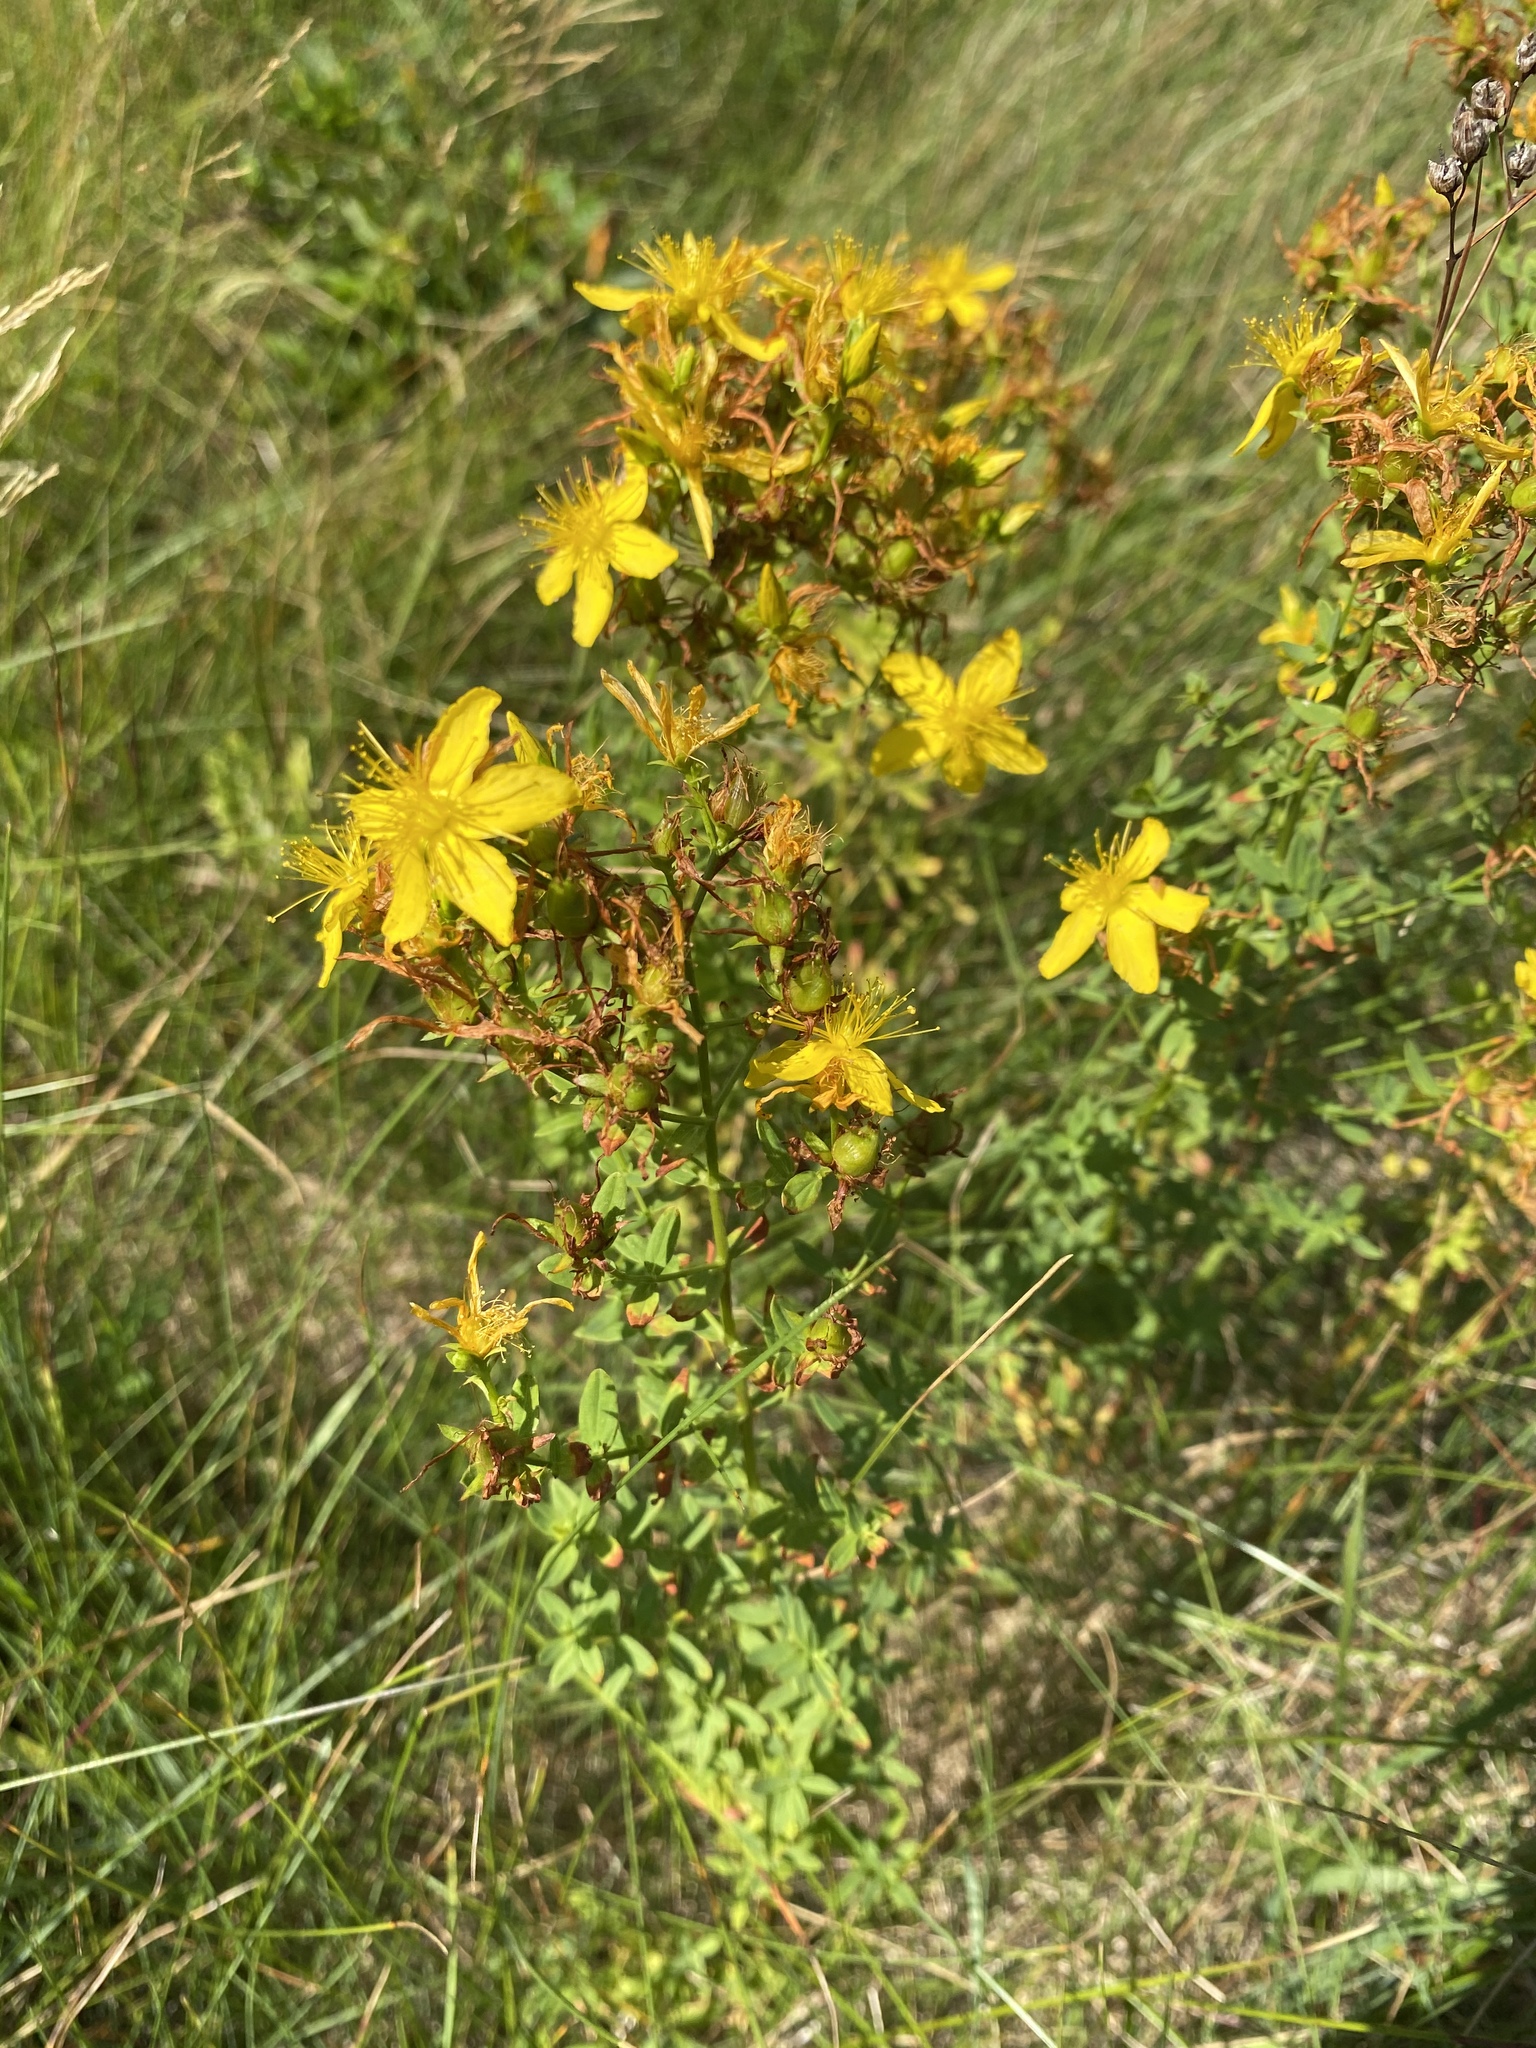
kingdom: Plantae
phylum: Tracheophyta
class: Magnoliopsida
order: Malpighiales
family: Hypericaceae
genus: Hypericum
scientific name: Hypericum perforatum
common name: Common st. johnswort
